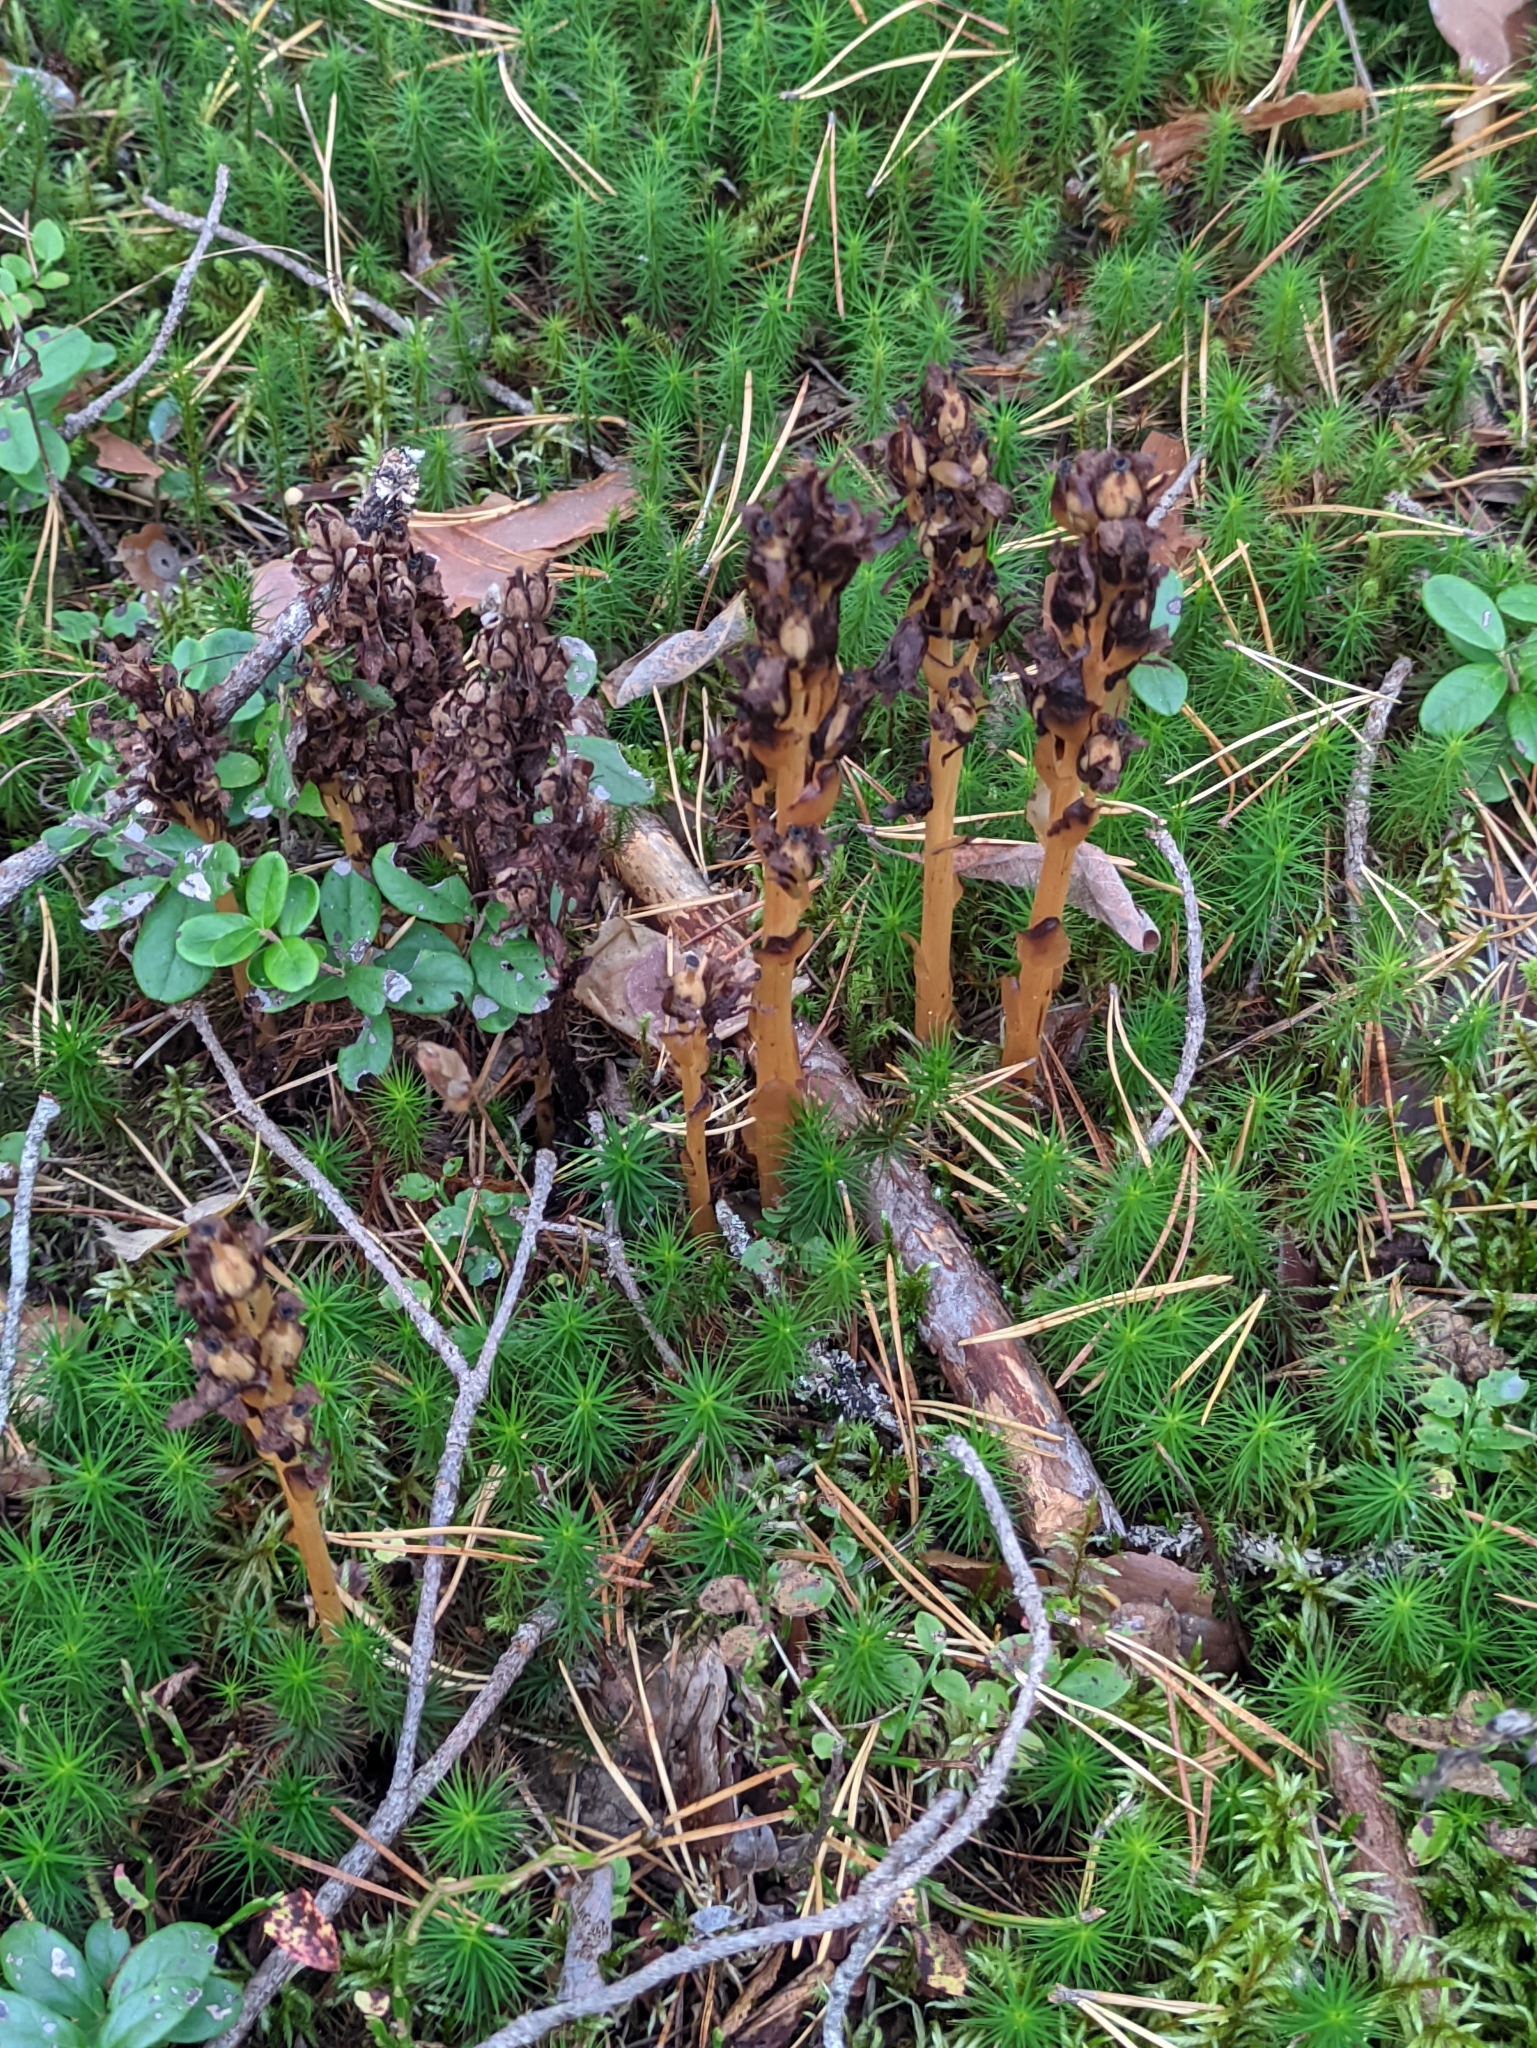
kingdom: Plantae
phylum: Tracheophyta
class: Magnoliopsida
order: Ericales
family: Ericaceae
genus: Hypopitys
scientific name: Hypopitys monotropa
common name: Yellow bird's-nest
